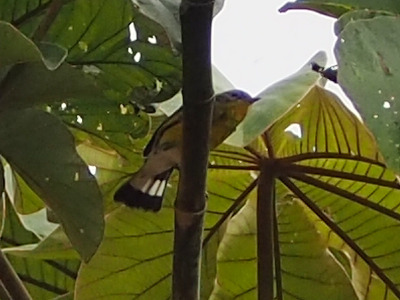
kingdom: Animalia
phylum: Chordata
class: Aves
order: Passeriformes
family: Parulidae
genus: Setophaga
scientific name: Setophaga magnolia
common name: Magnolia warbler
